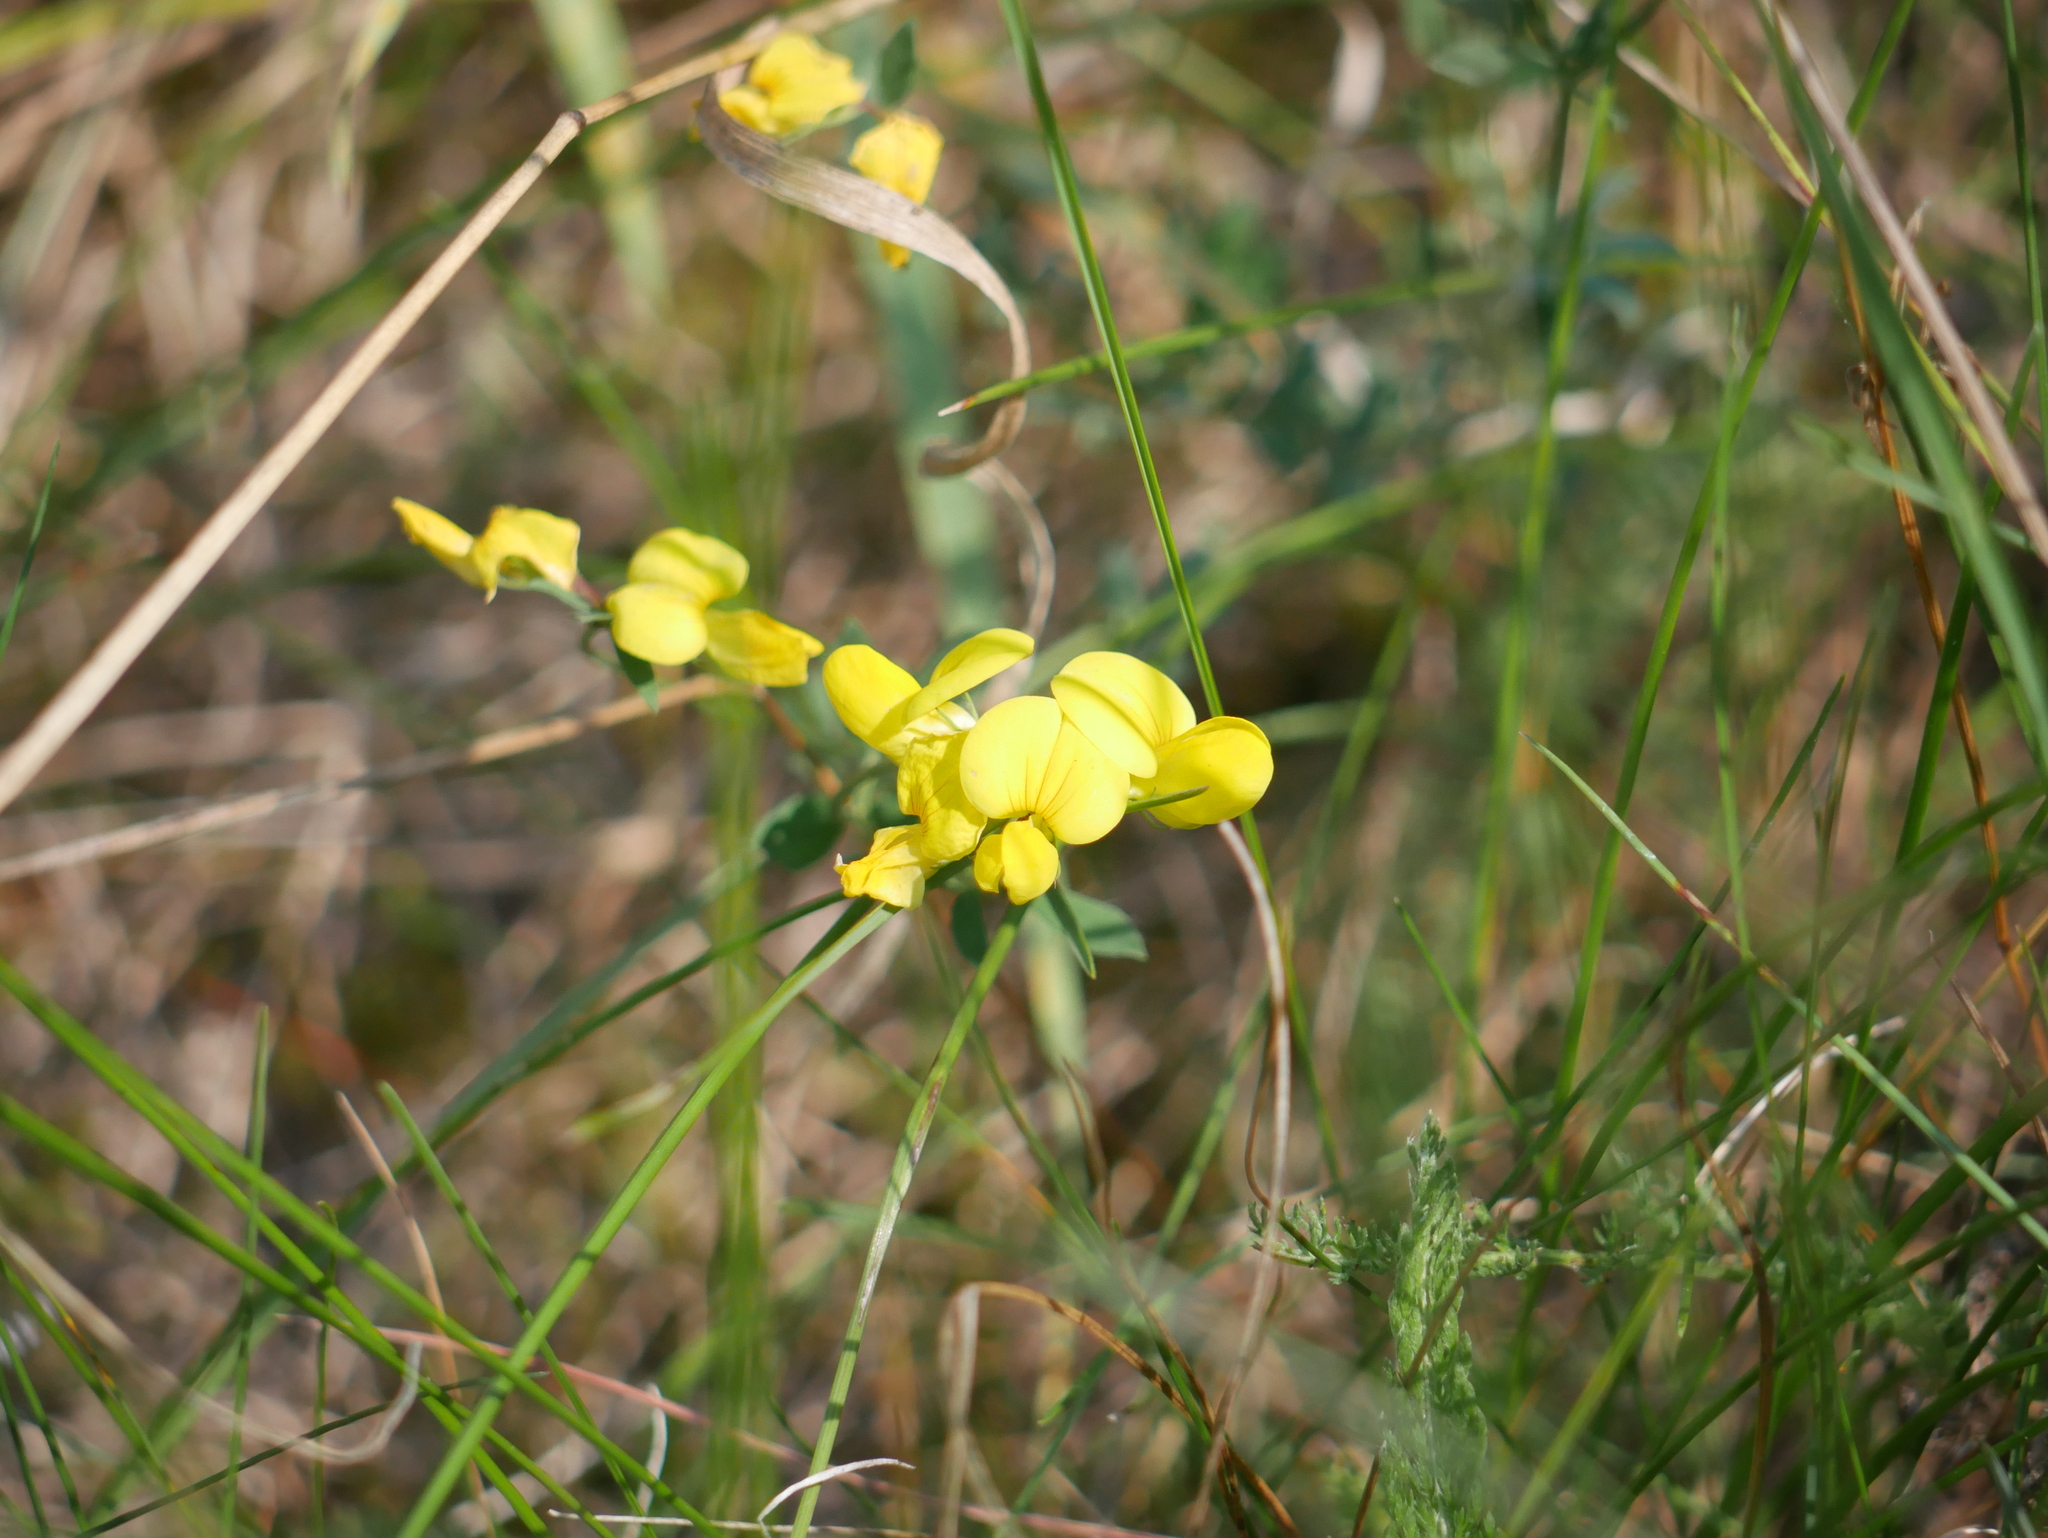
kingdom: Plantae
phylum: Tracheophyta
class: Magnoliopsida
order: Fabales
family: Fabaceae
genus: Lotus
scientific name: Lotus corniculatus
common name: Common bird's-foot-trefoil
